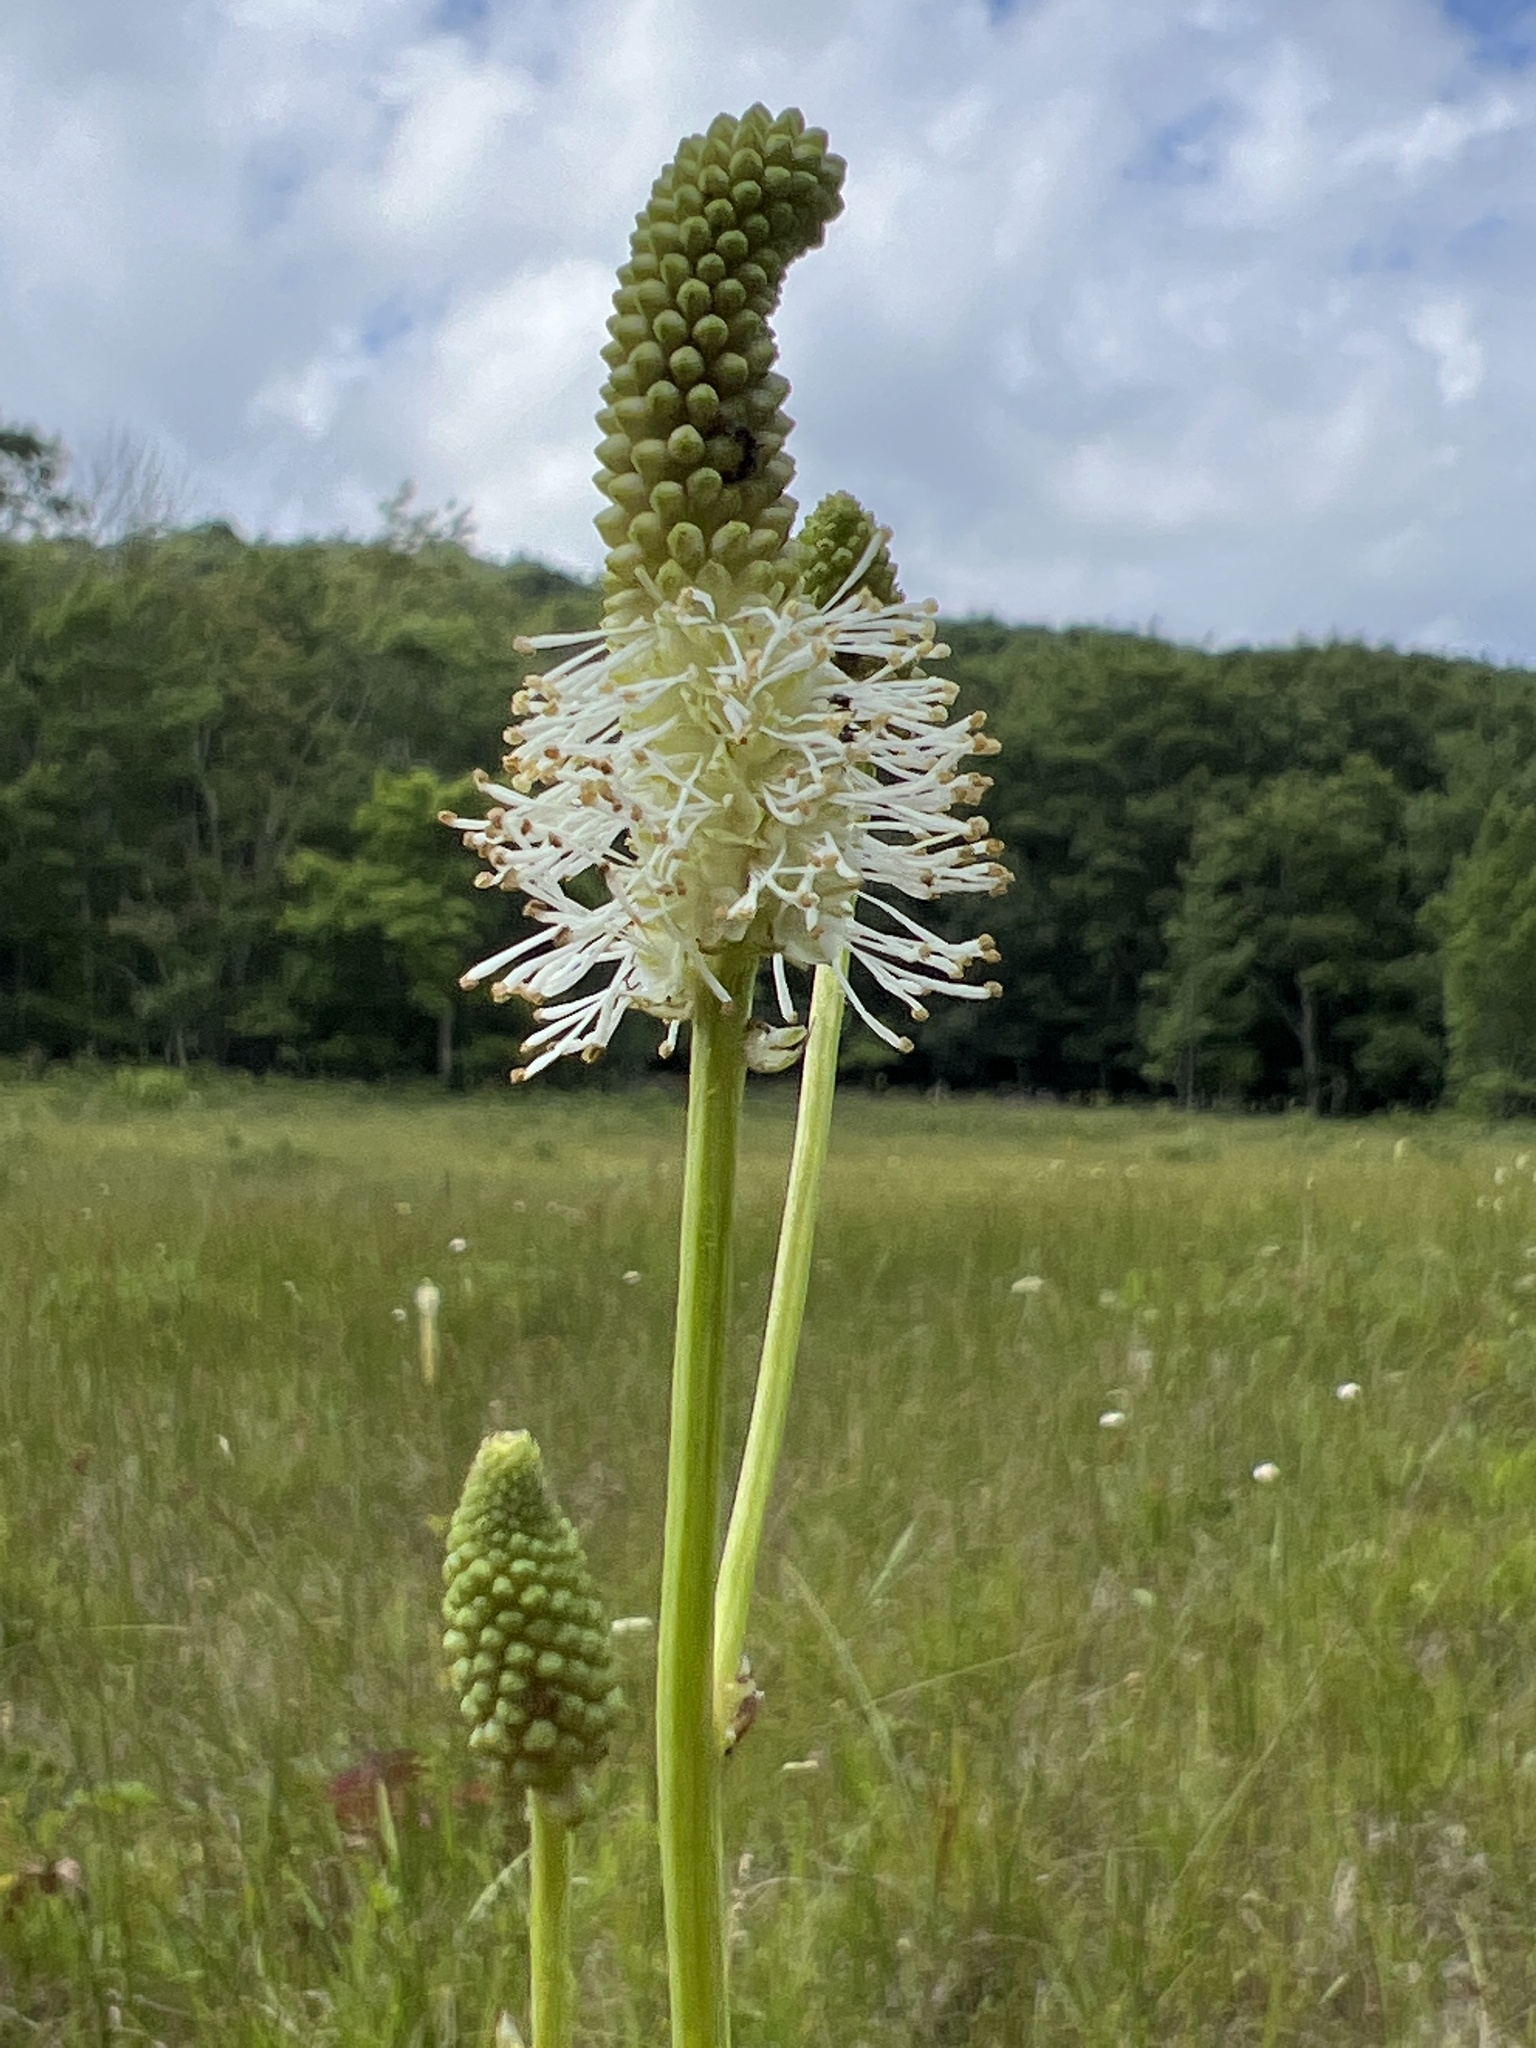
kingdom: Plantae
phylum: Tracheophyta
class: Magnoliopsida
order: Rosales
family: Rosaceae
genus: Sanguisorba
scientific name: Sanguisorba canadensis
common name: White burnet
